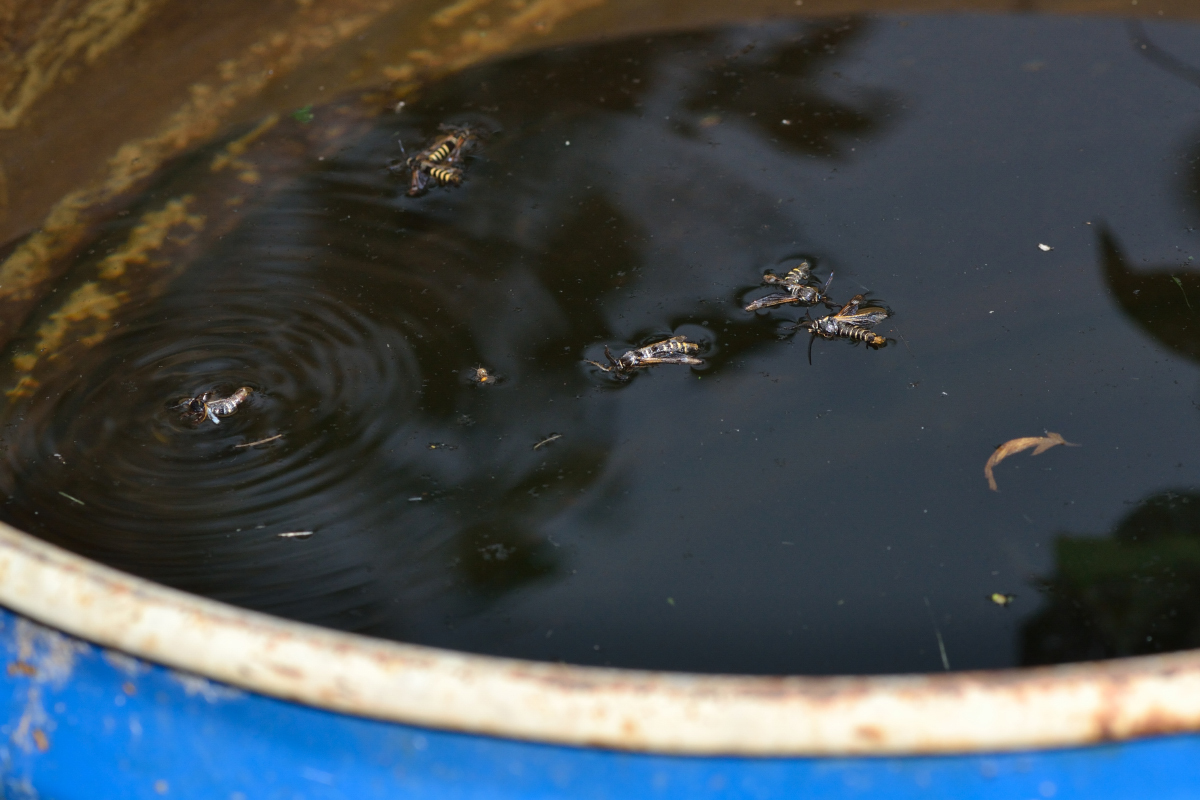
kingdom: Animalia
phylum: Arthropoda
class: Insecta
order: Lepidoptera
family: Sesiidae
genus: Pennisetia
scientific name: Pennisetia hylaeiformis
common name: Raspberry clearwing
